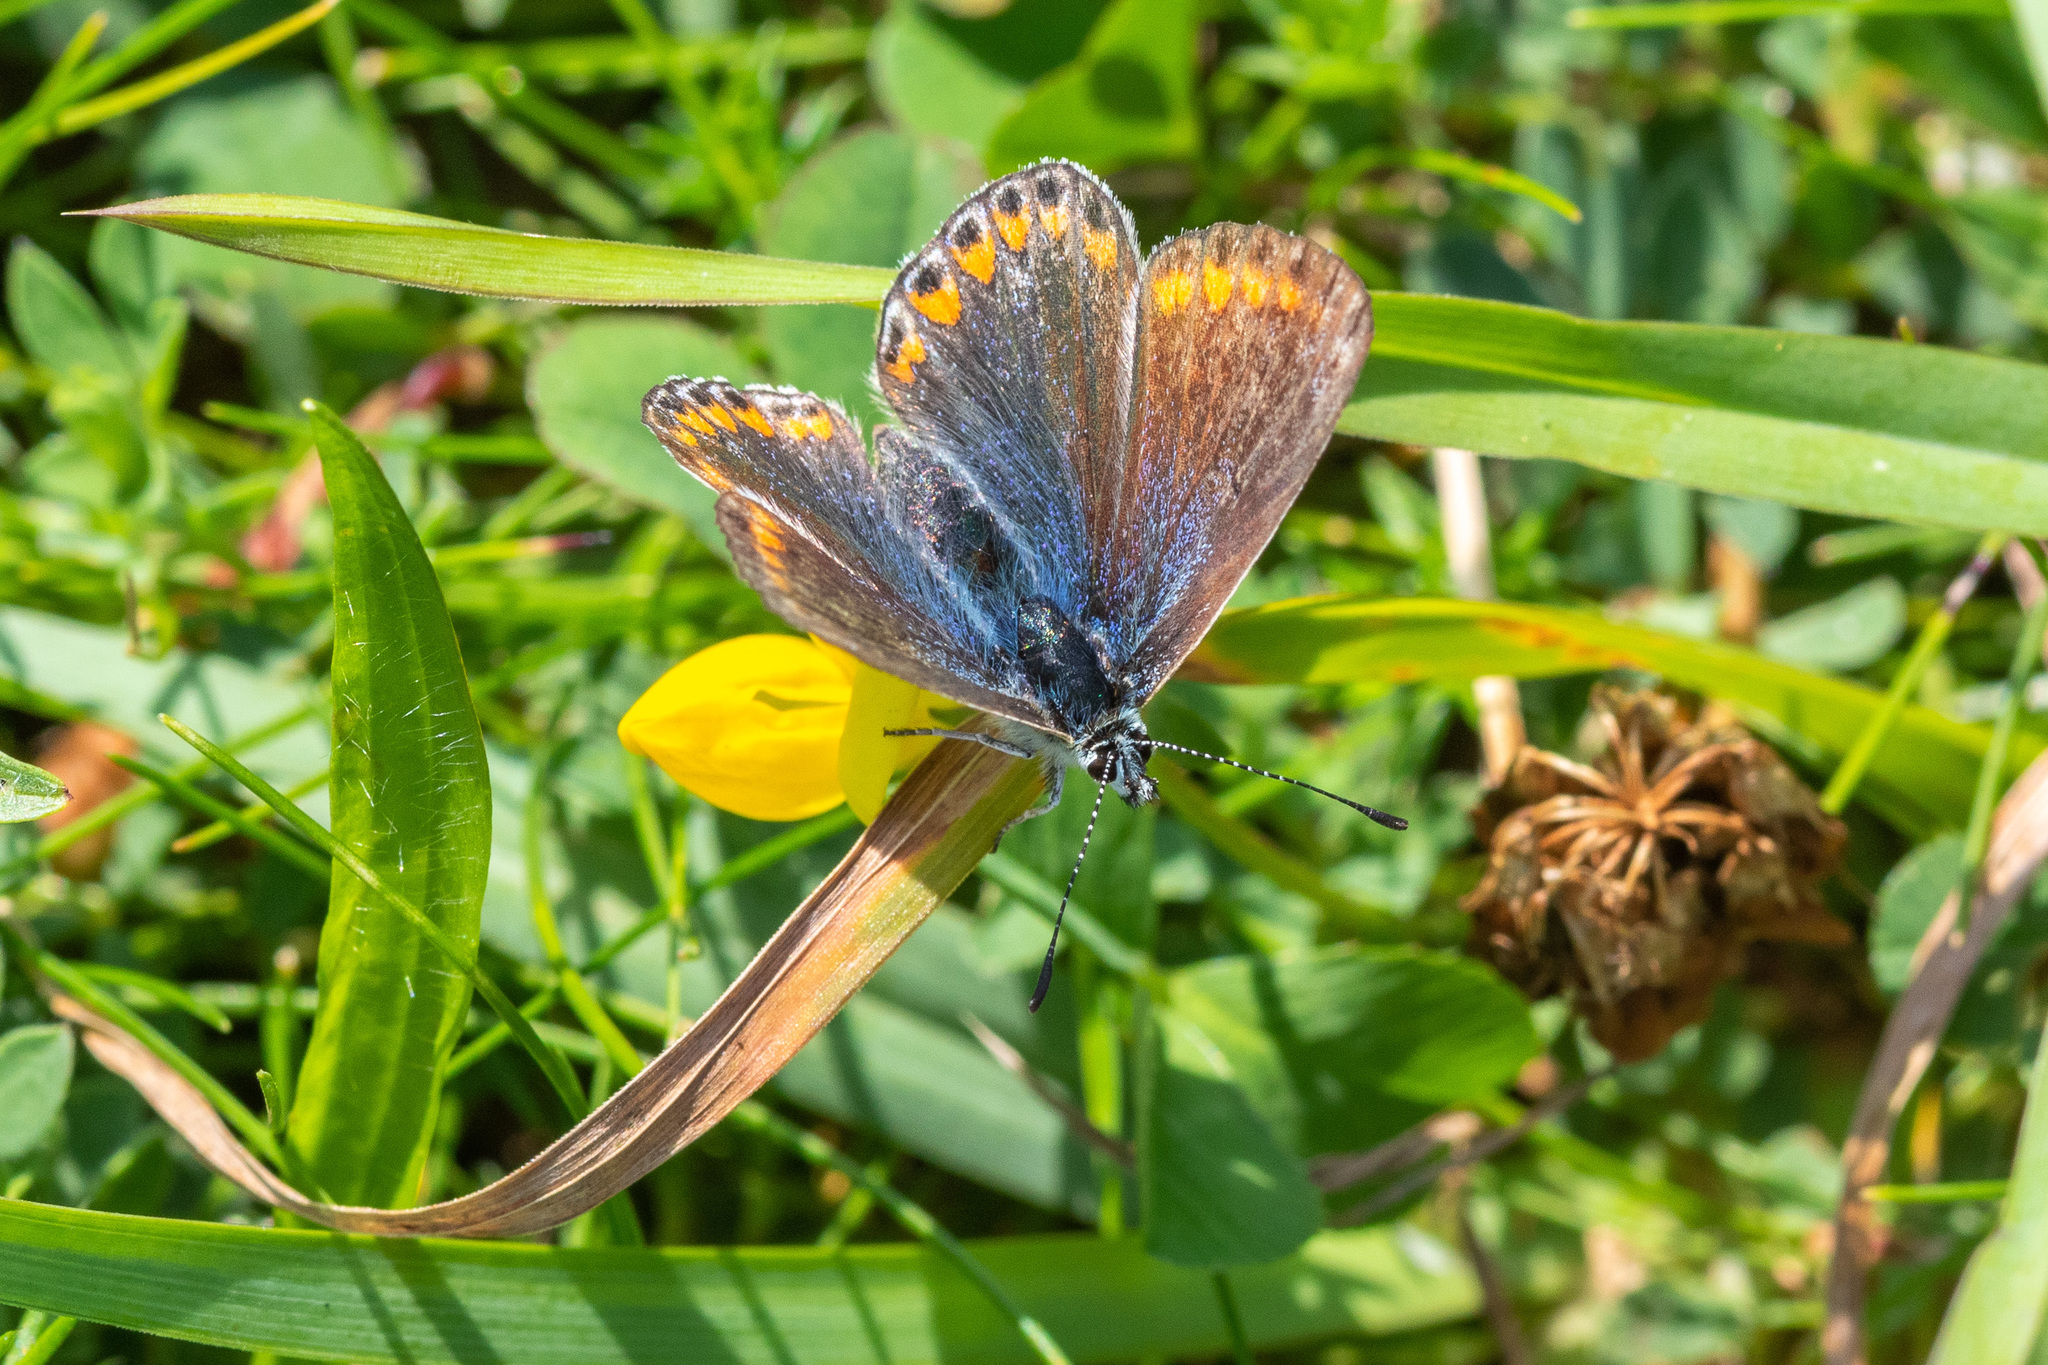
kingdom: Animalia
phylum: Arthropoda
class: Insecta
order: Lepidoptera
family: Lycaenidae
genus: Polyommatus
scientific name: Polyommatus icarus
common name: Common blue
